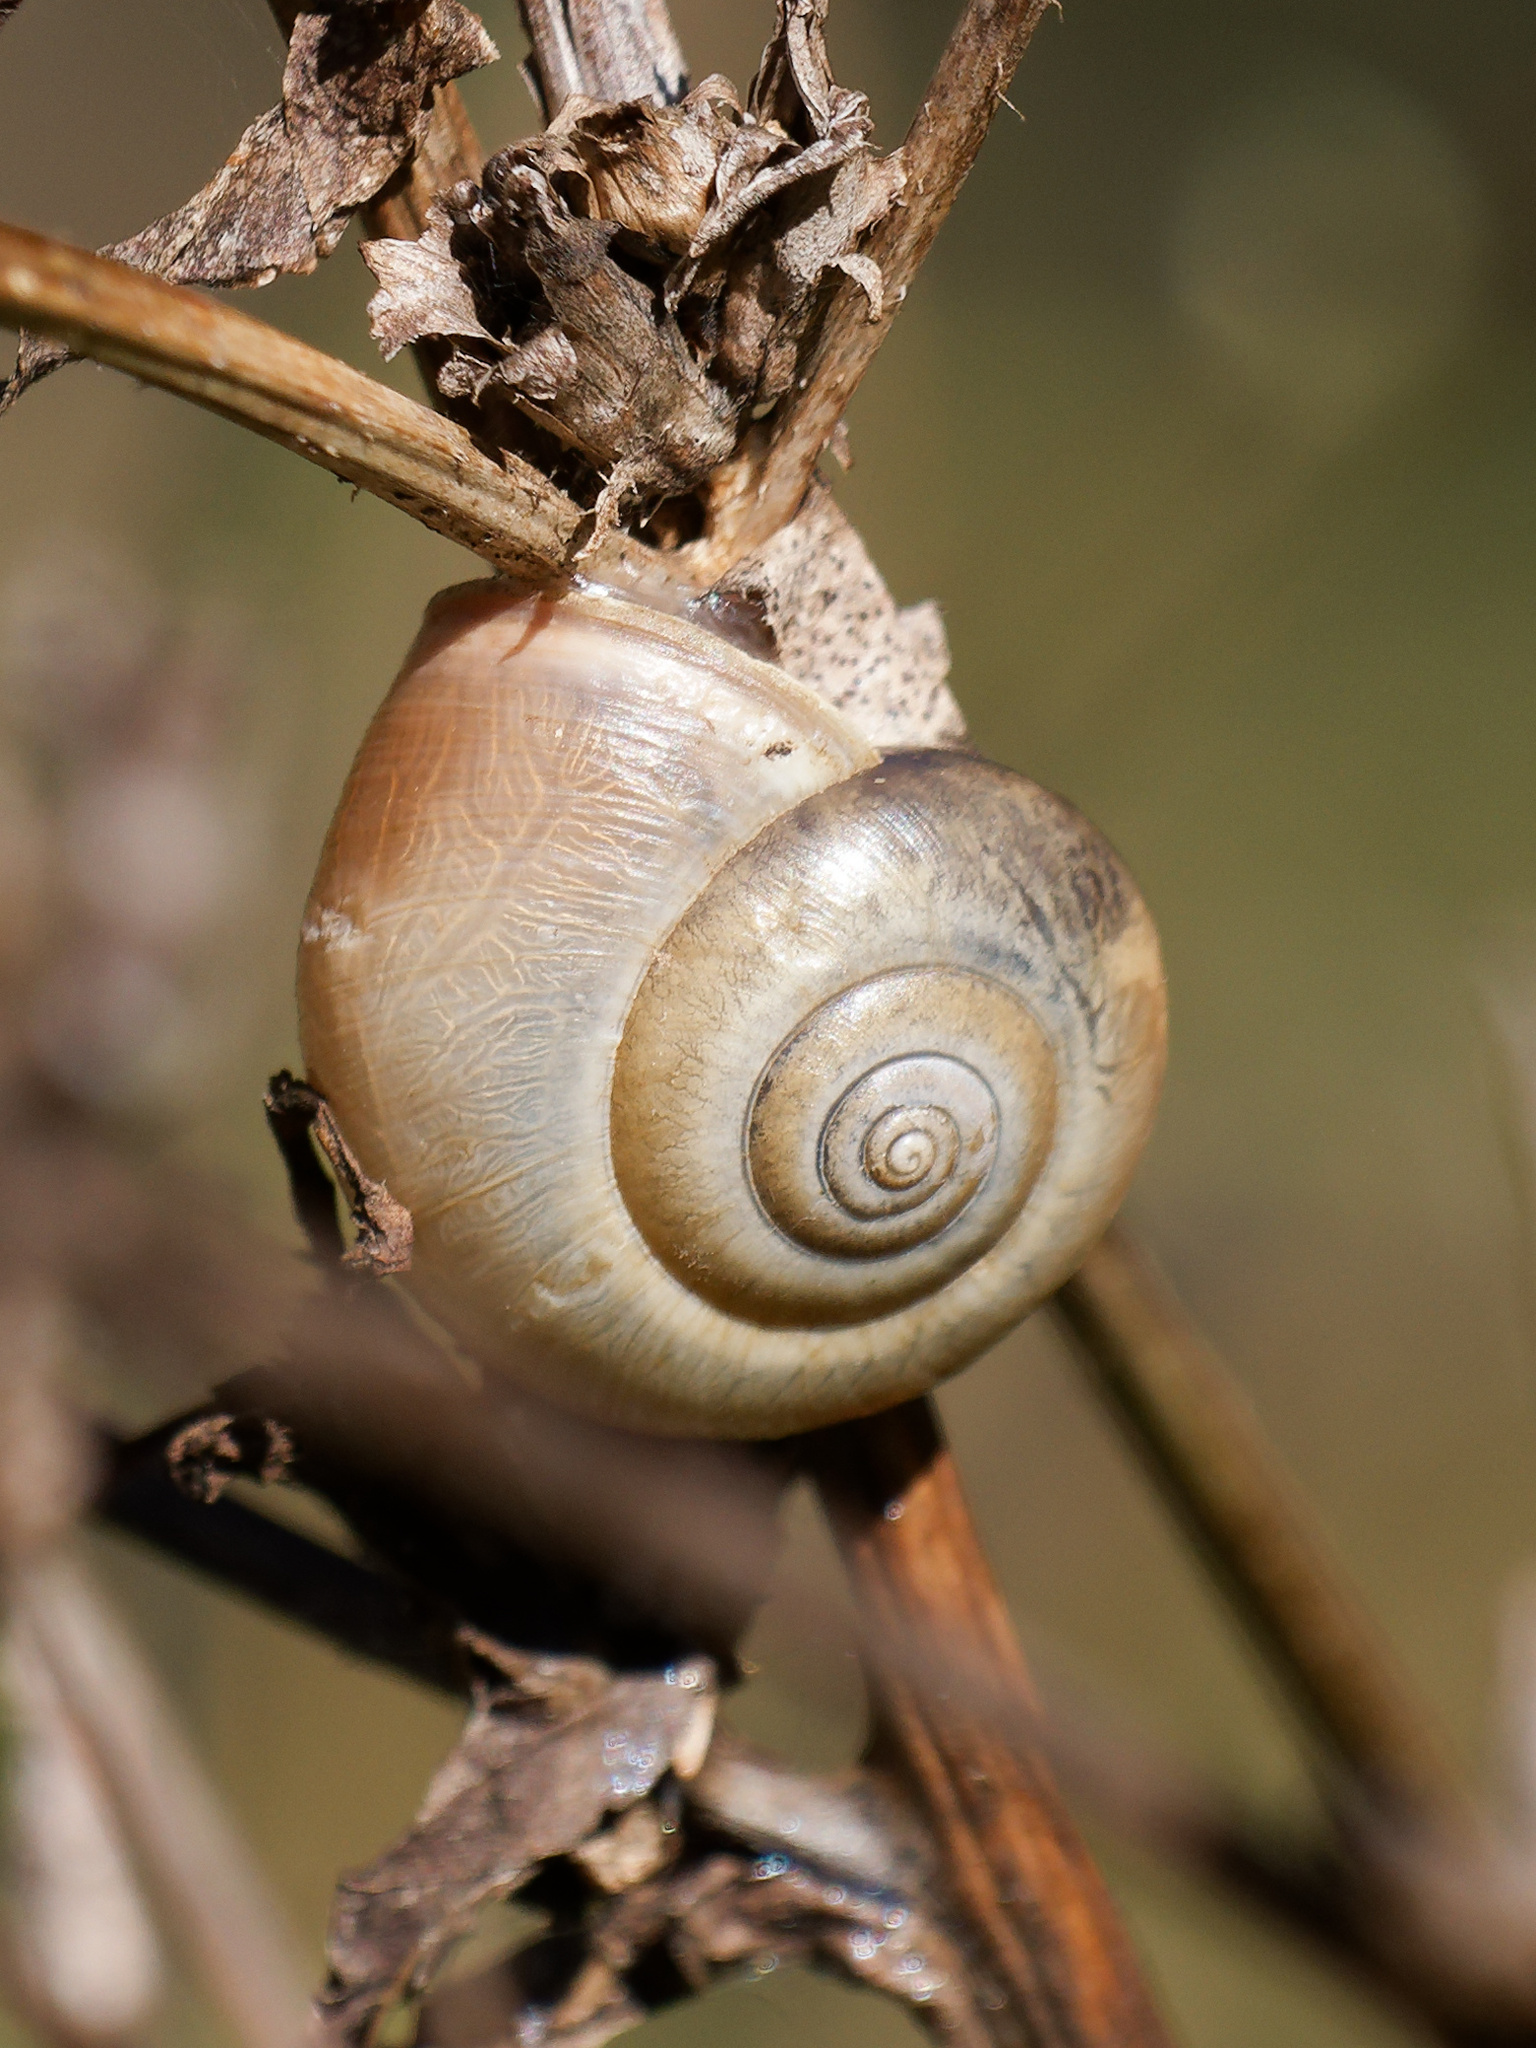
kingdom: Animalia
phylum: Mollusca
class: Gastropoda
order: Stylommatophora
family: Hygromiidae
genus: Monacha
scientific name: Monacha cantiana
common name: Kentish snail
